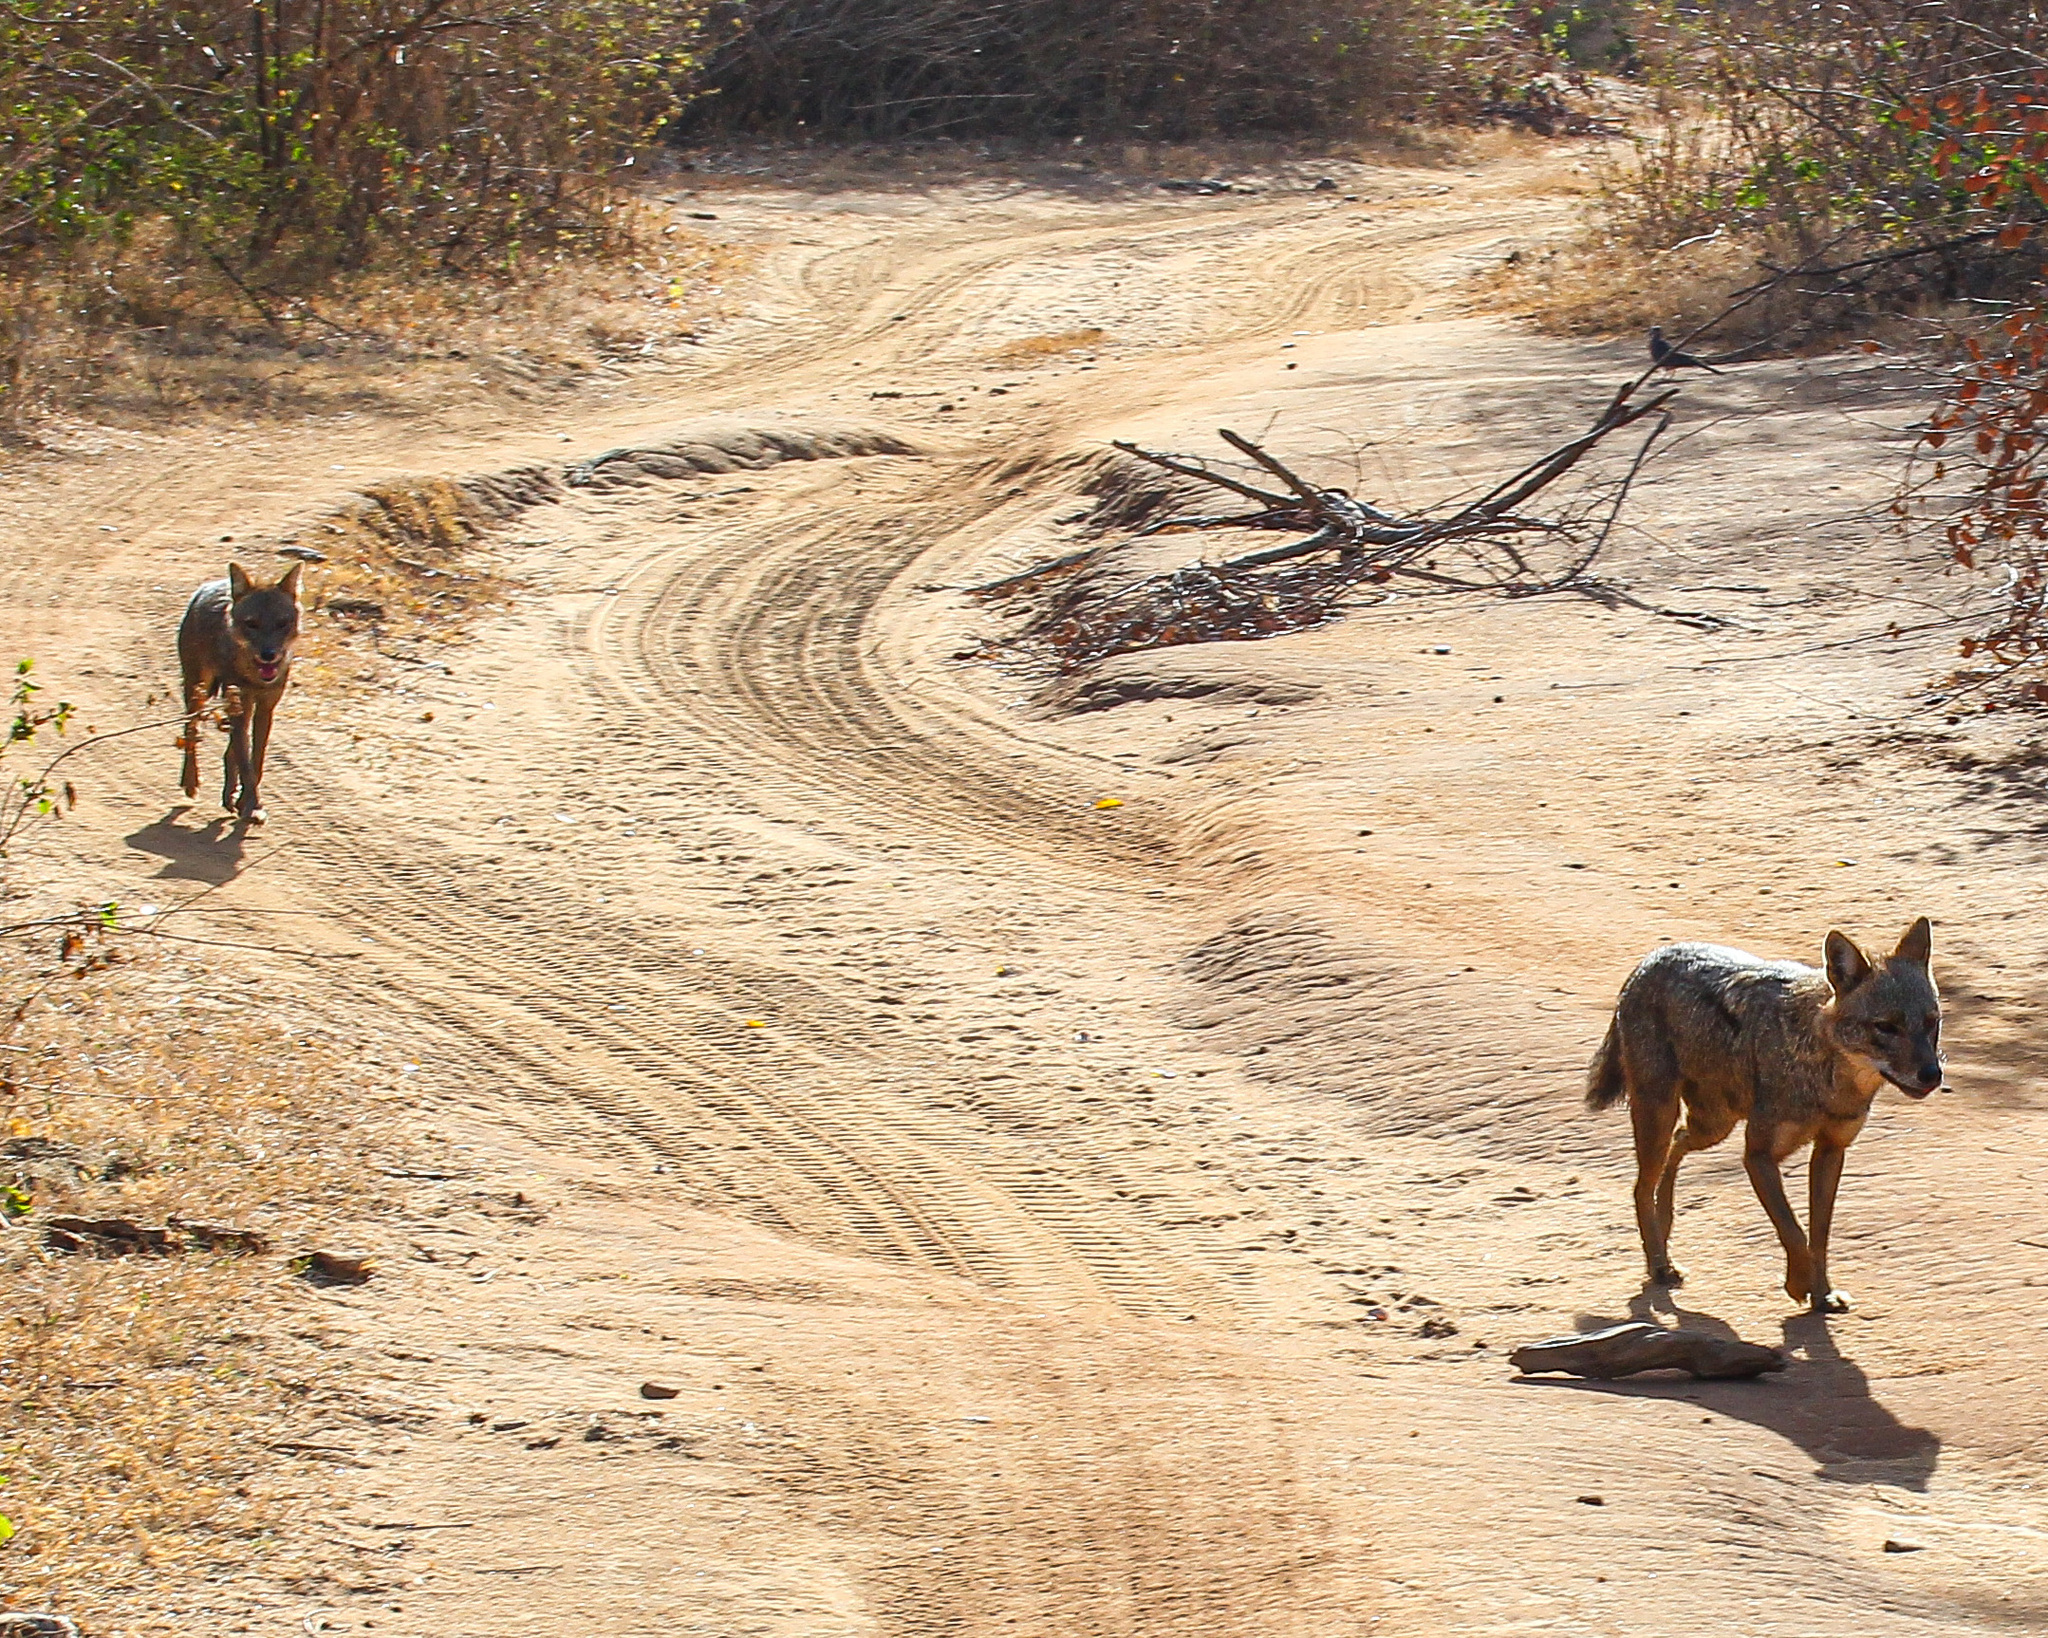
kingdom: Animalia
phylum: Chordata
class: Mammalia
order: Carnivora
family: Canidae
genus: Canis
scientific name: Canis aureus
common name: Golden jackal
